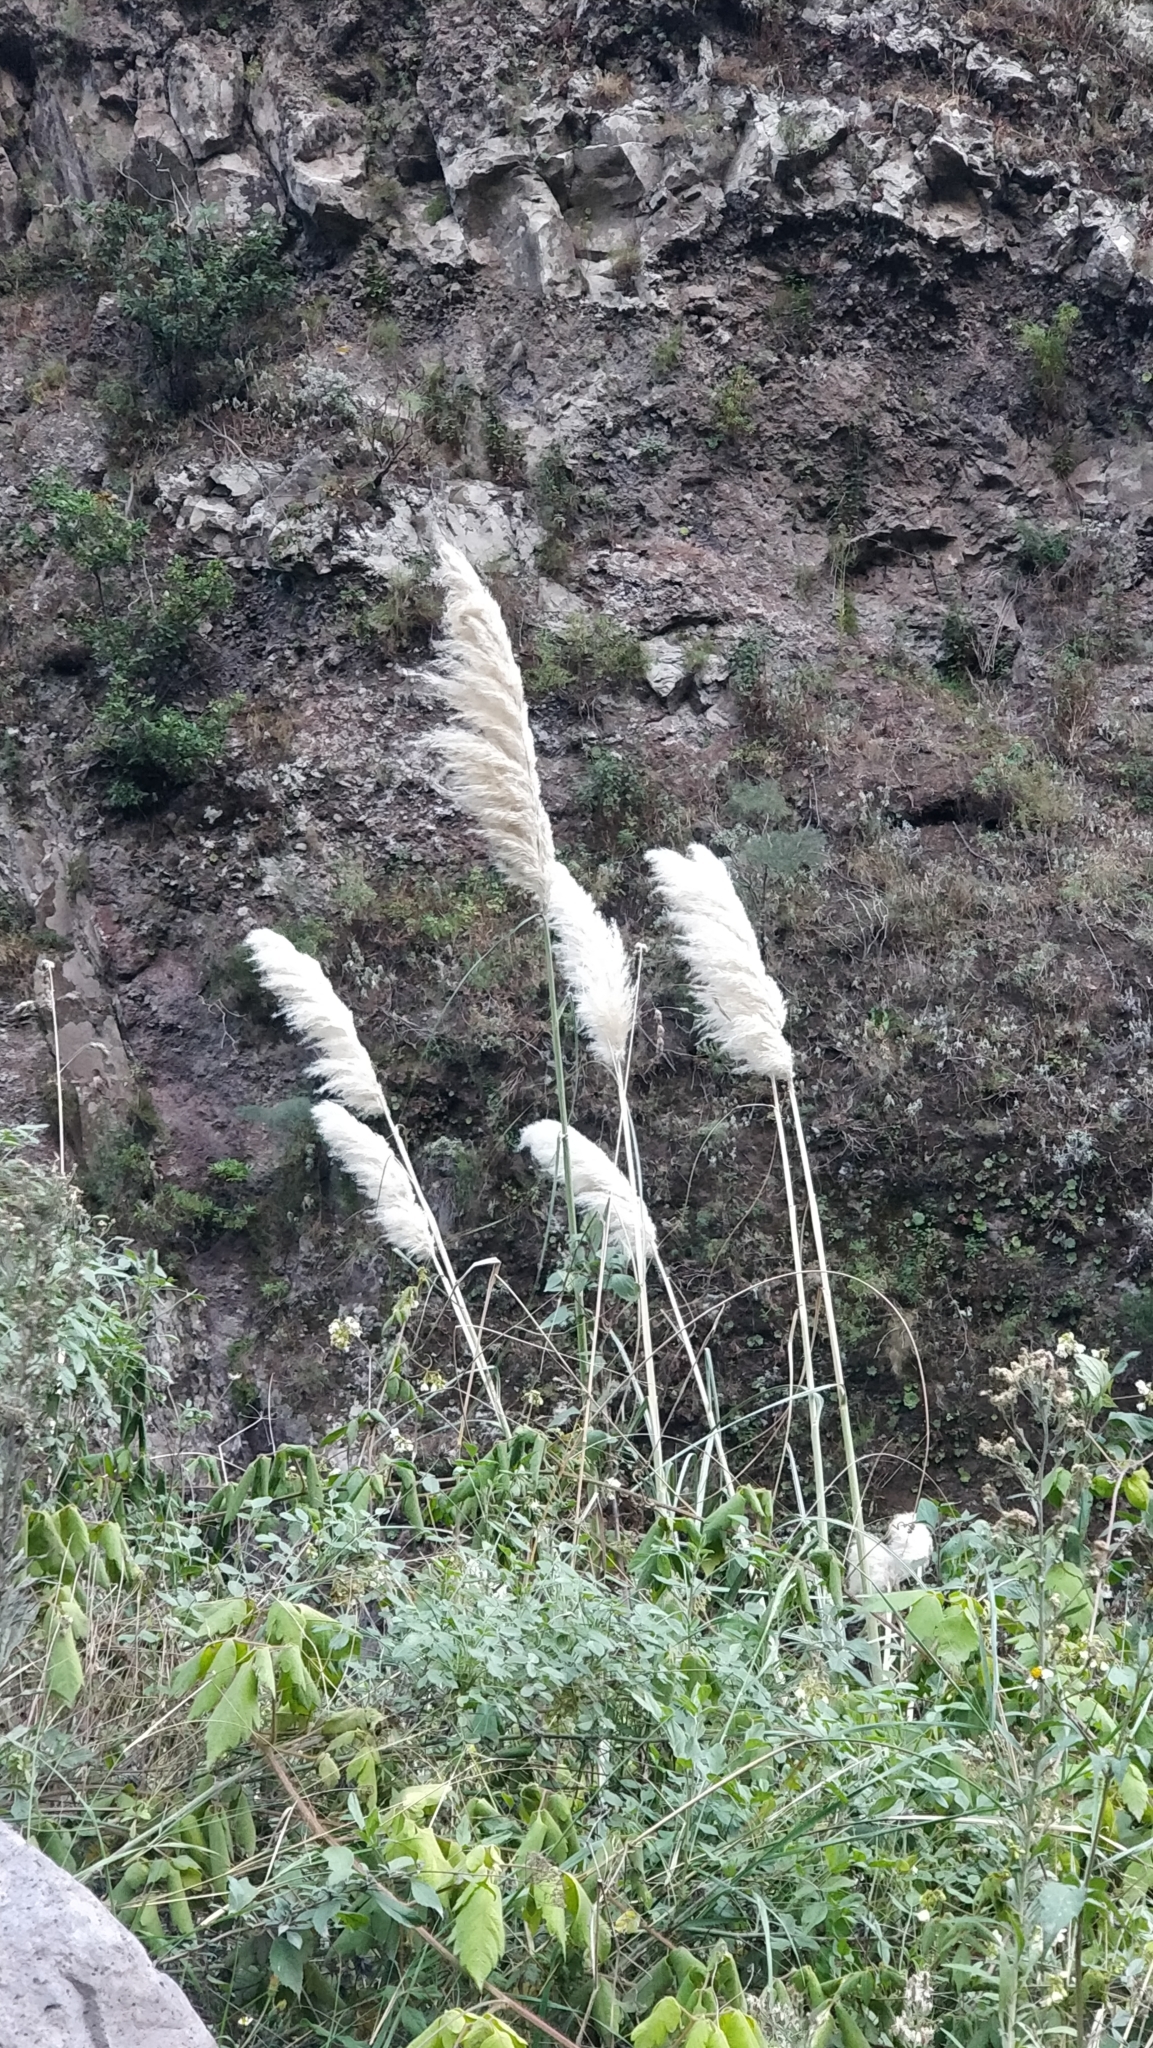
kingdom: Plantae
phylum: Tracheophyta
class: Liliopsida
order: Poales
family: Poaceae
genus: Cortaderia
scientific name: Cortaderia selloana
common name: Uruguayan pampas grass
